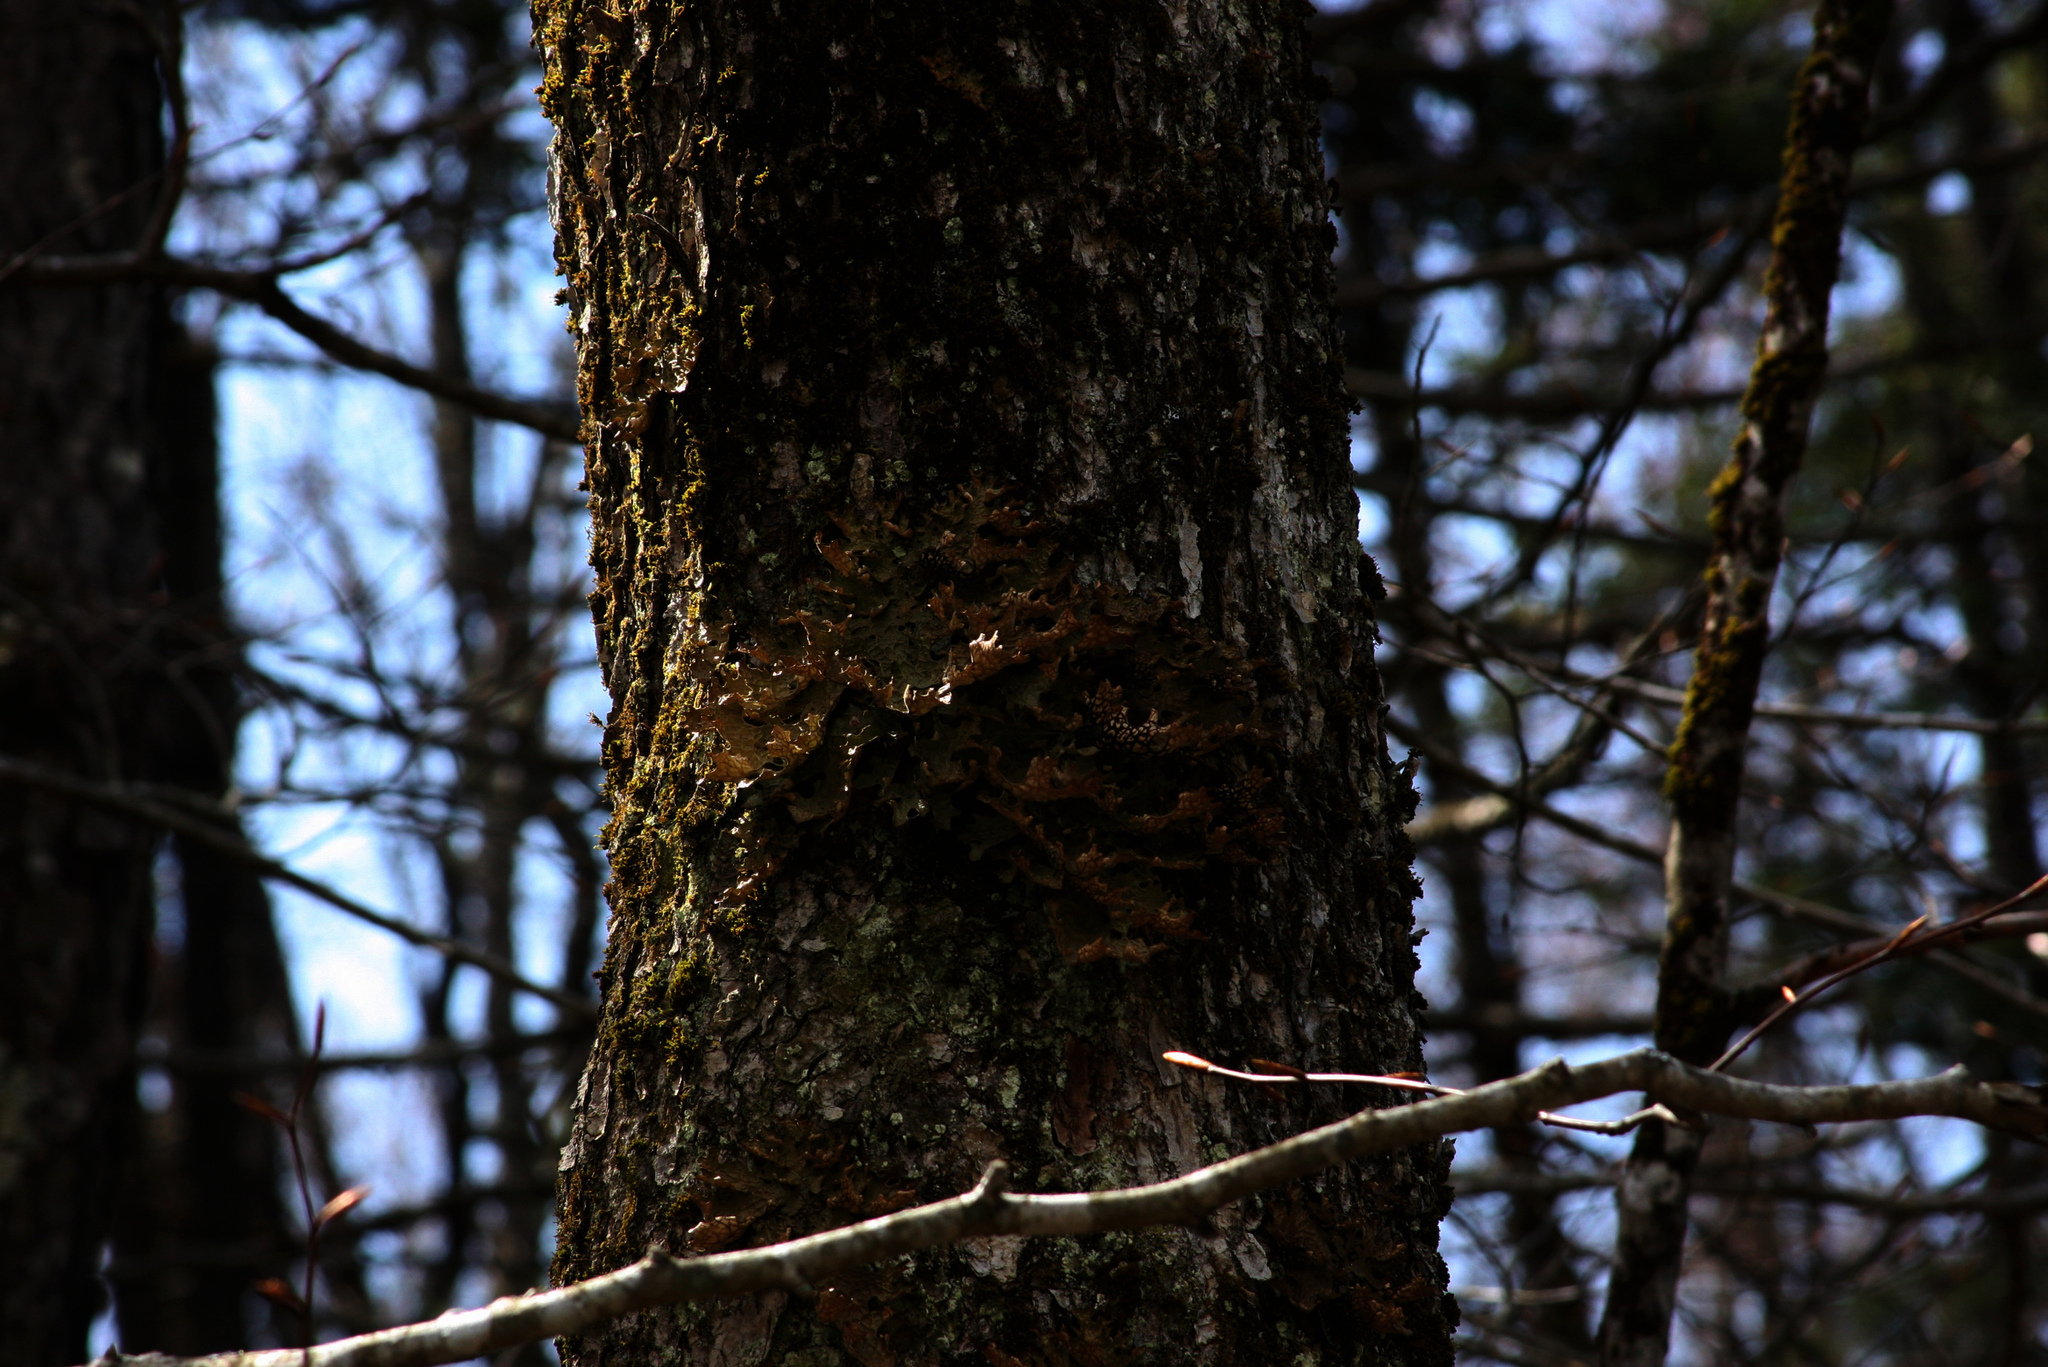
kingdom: Fungi
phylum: Ascomycota
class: Lecanoromycetes
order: Peltigerales
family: Lobariaceae
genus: Lobaria
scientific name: Lobaria pulmonaria
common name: Lungwort
